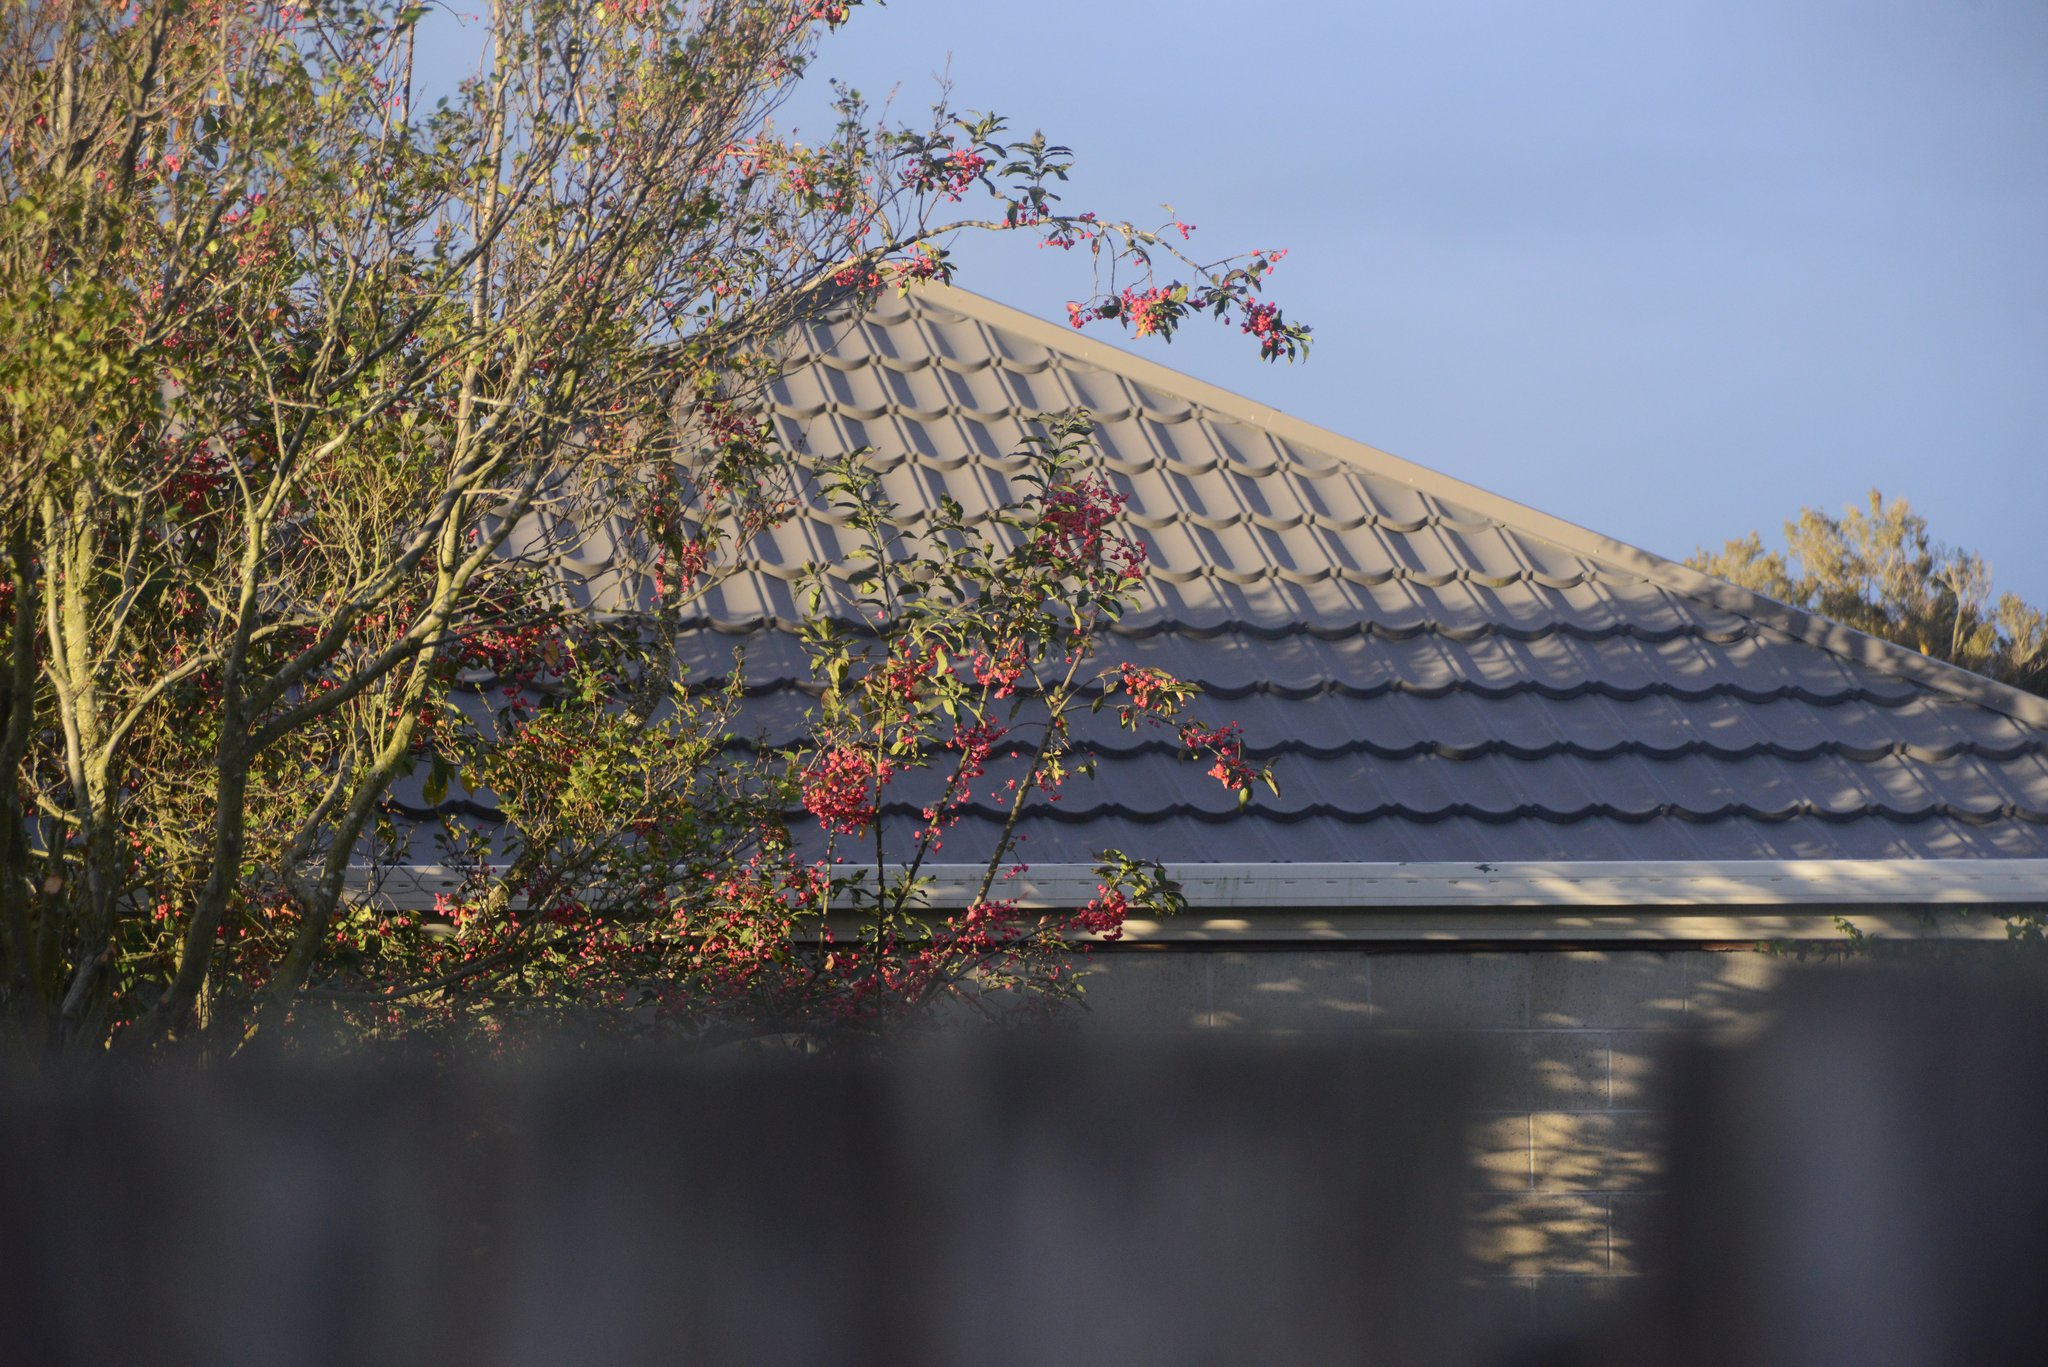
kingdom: Plantae
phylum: Tracheophyta
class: Magnoliopsida
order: Celastrales
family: Celastraceae
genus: Euonymus
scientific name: Euonymus europaeus
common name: Spindle
